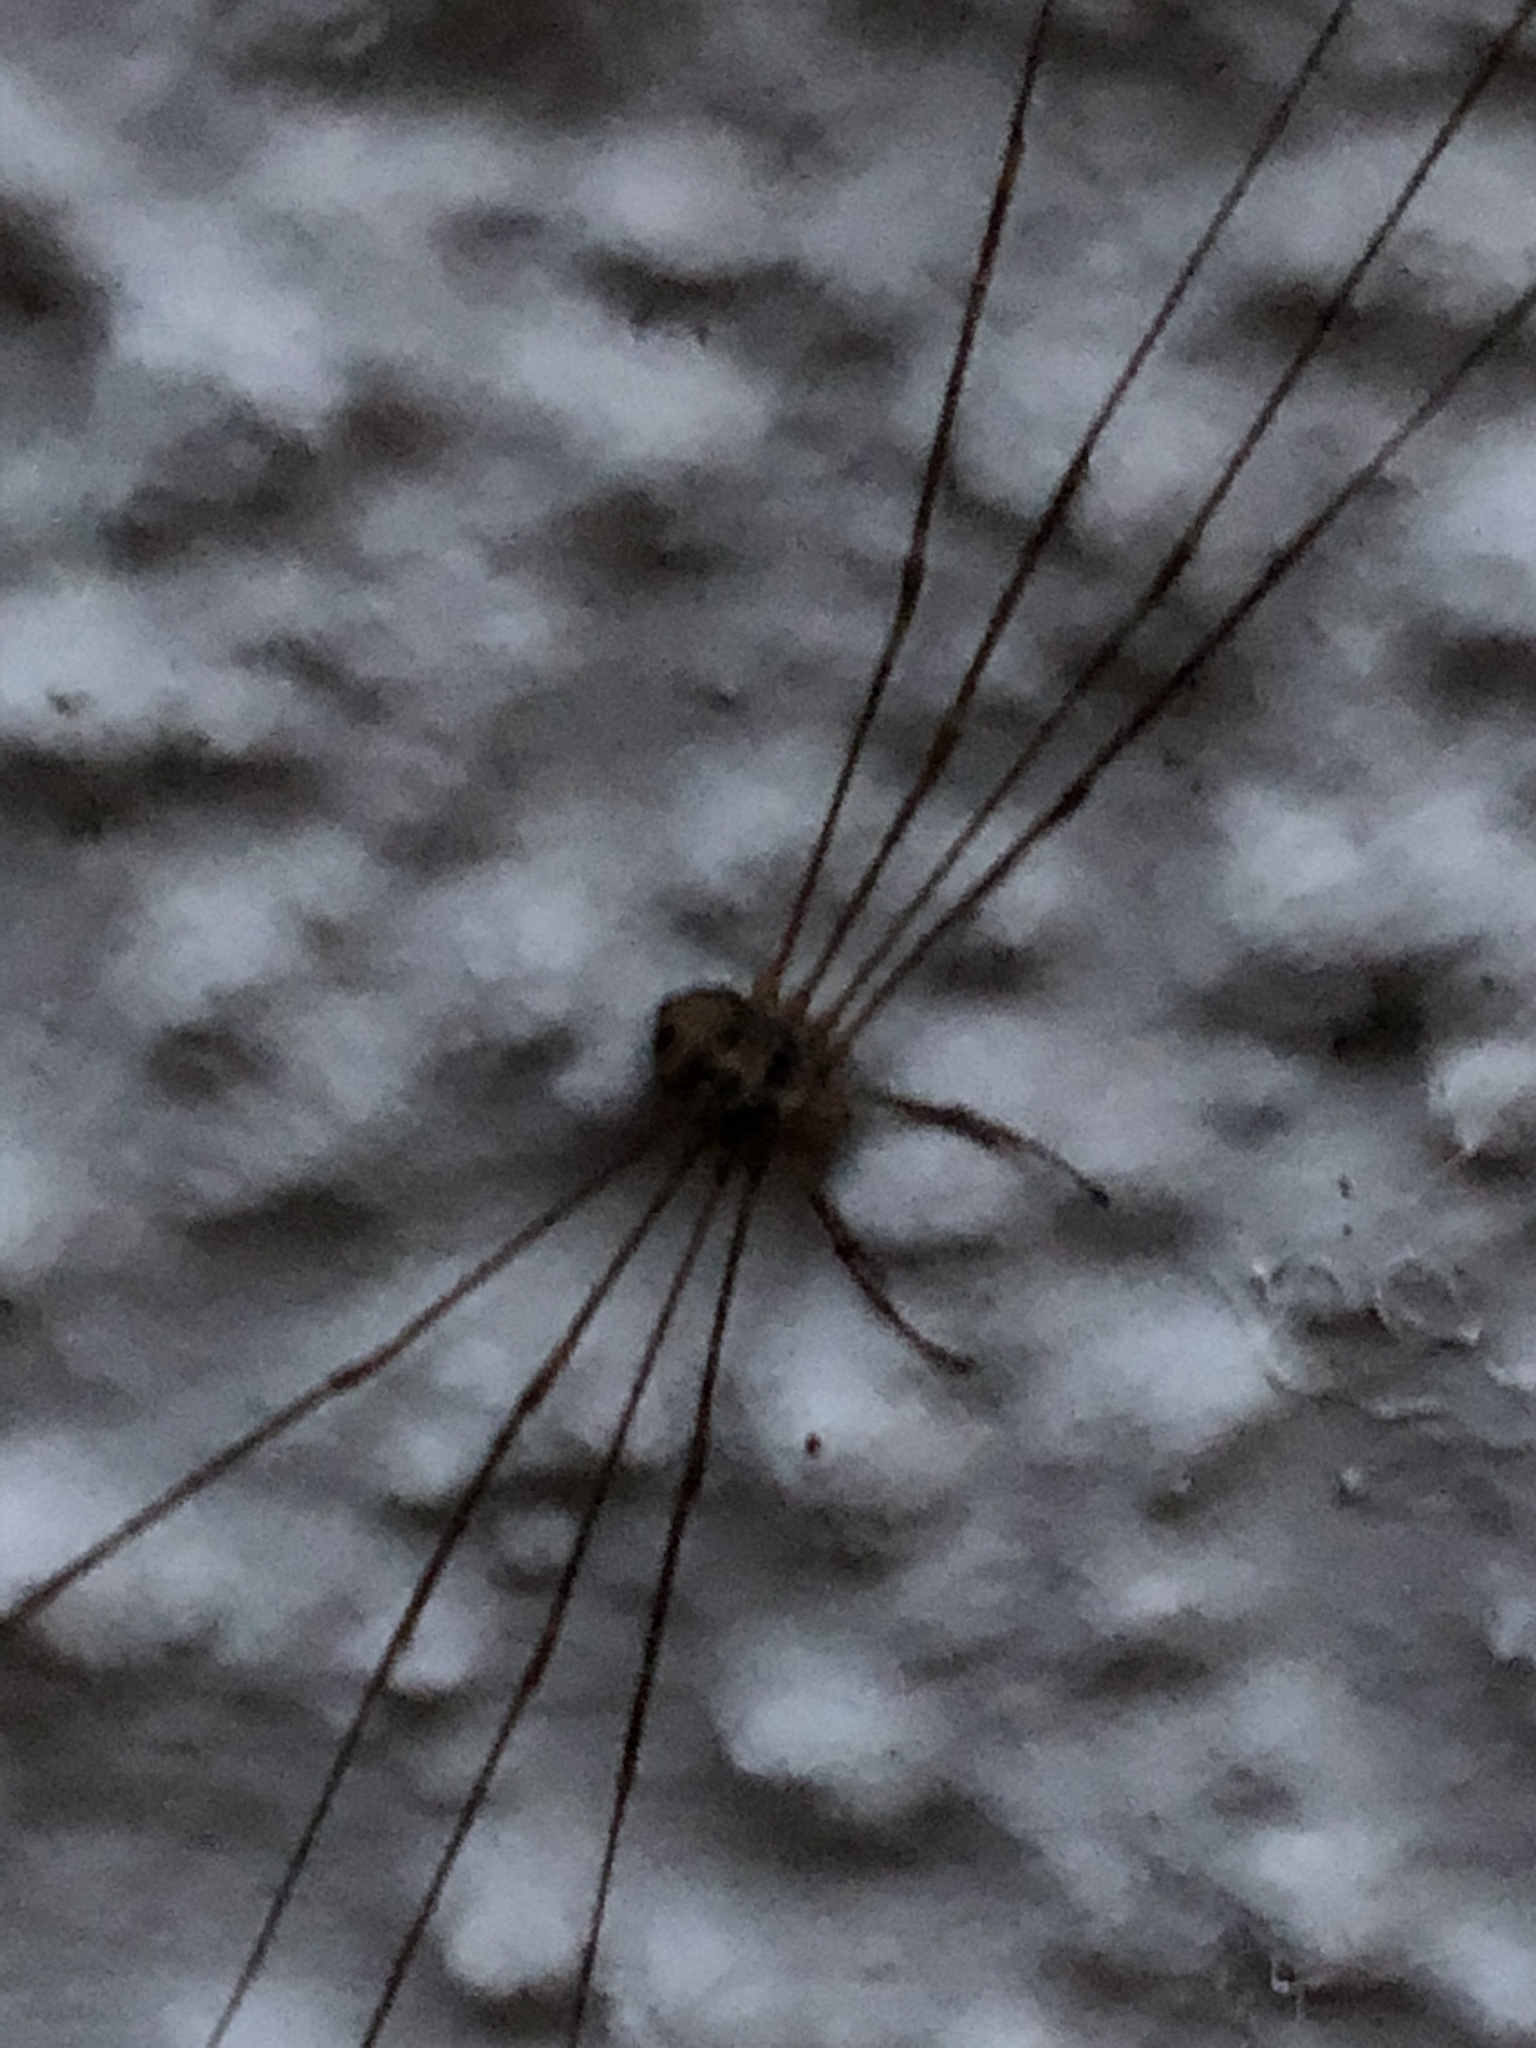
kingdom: Animalia
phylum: Arthropoda
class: Arachnida
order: Opiliones
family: Phalangiidae
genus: Dicranopalpus
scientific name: Dicranopalpus ramosus
